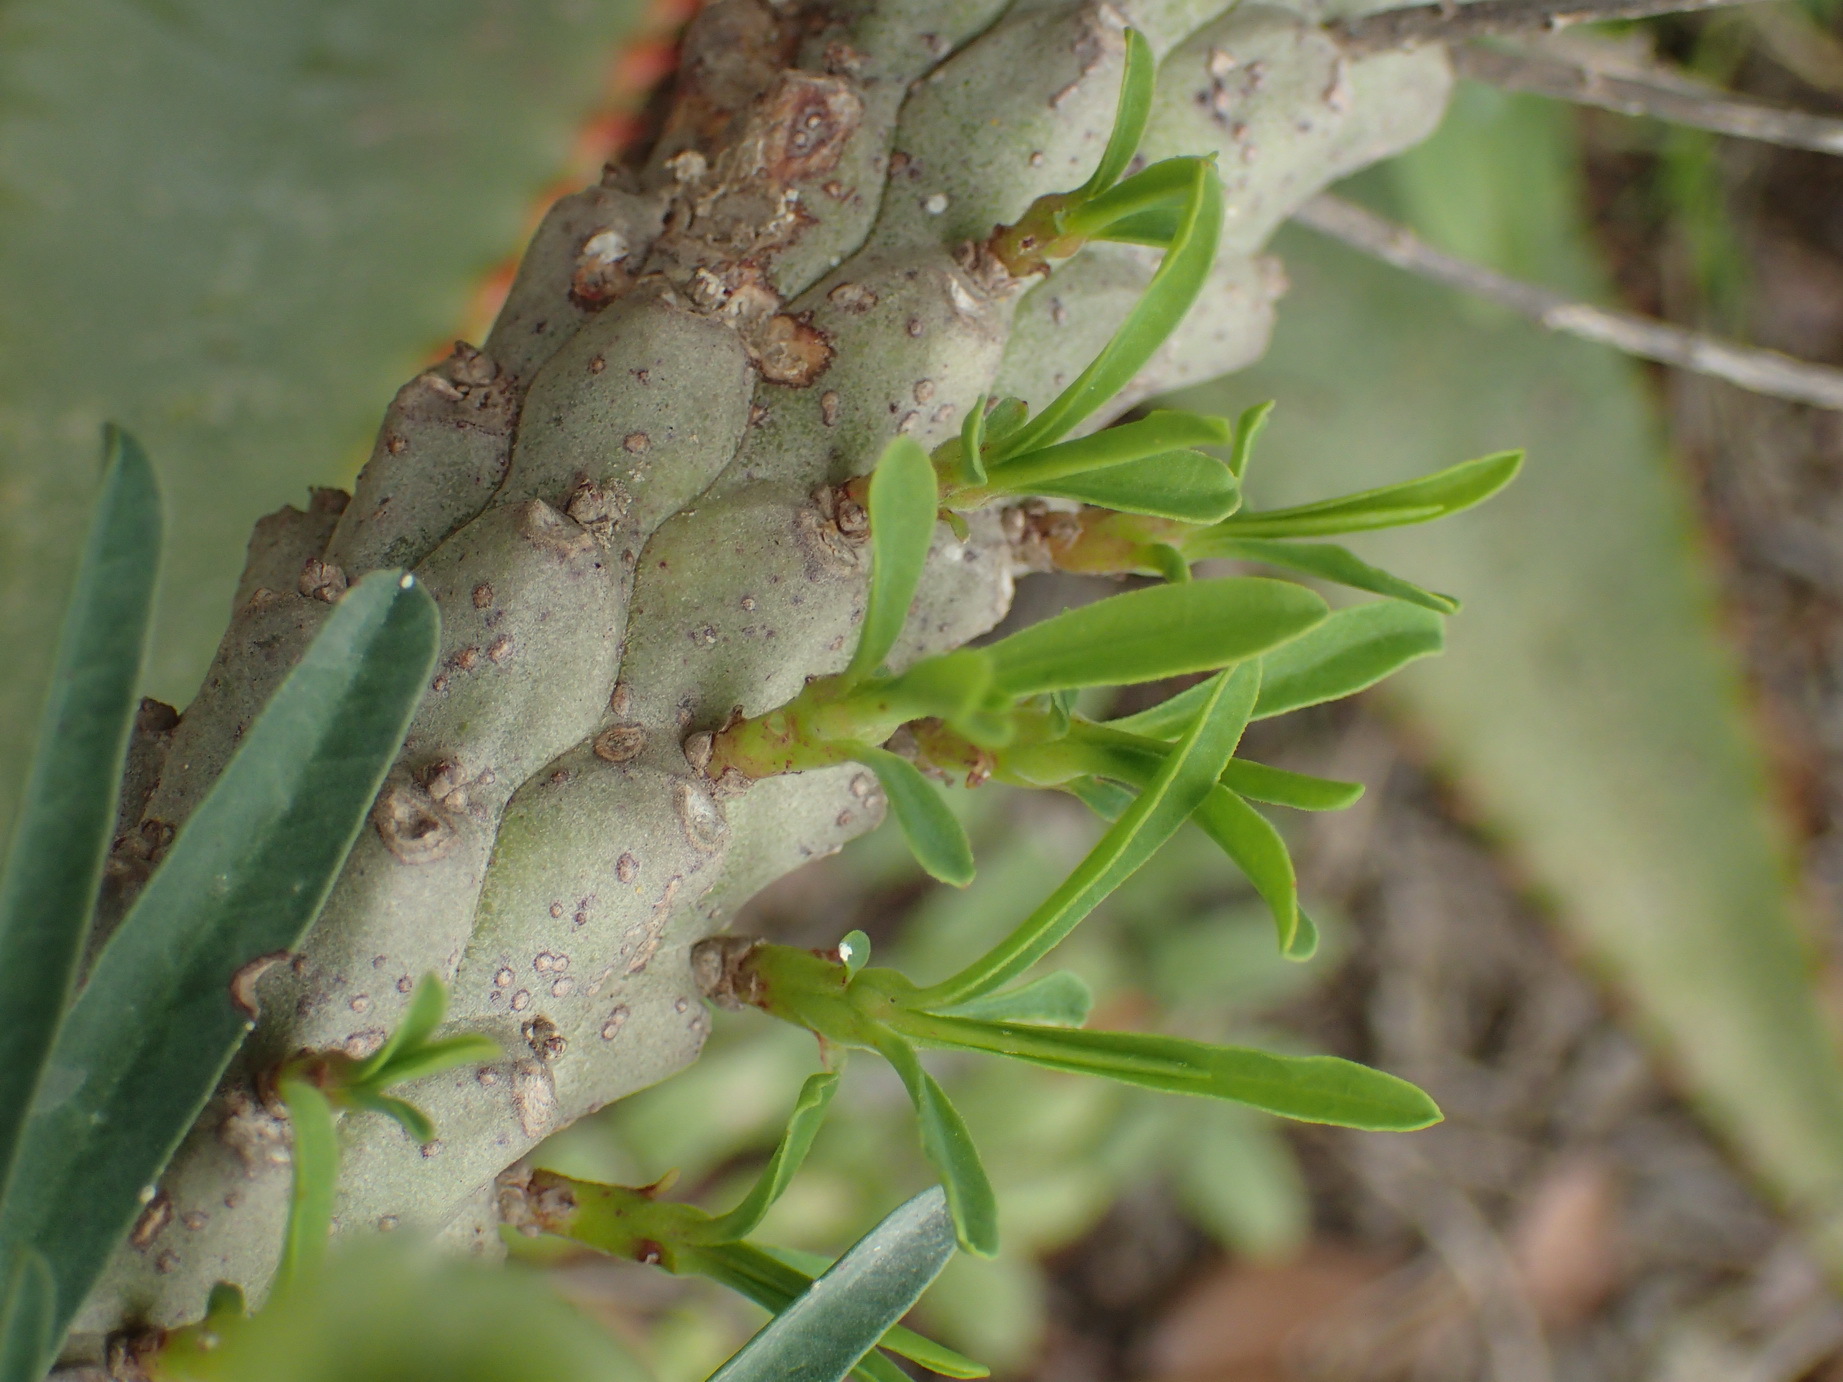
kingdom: Plantae
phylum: Tracheophyta
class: Magnoliopsida
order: Malpighiales
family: Euphorbiaceae
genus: Euphorbia
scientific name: Euphorbia clava
